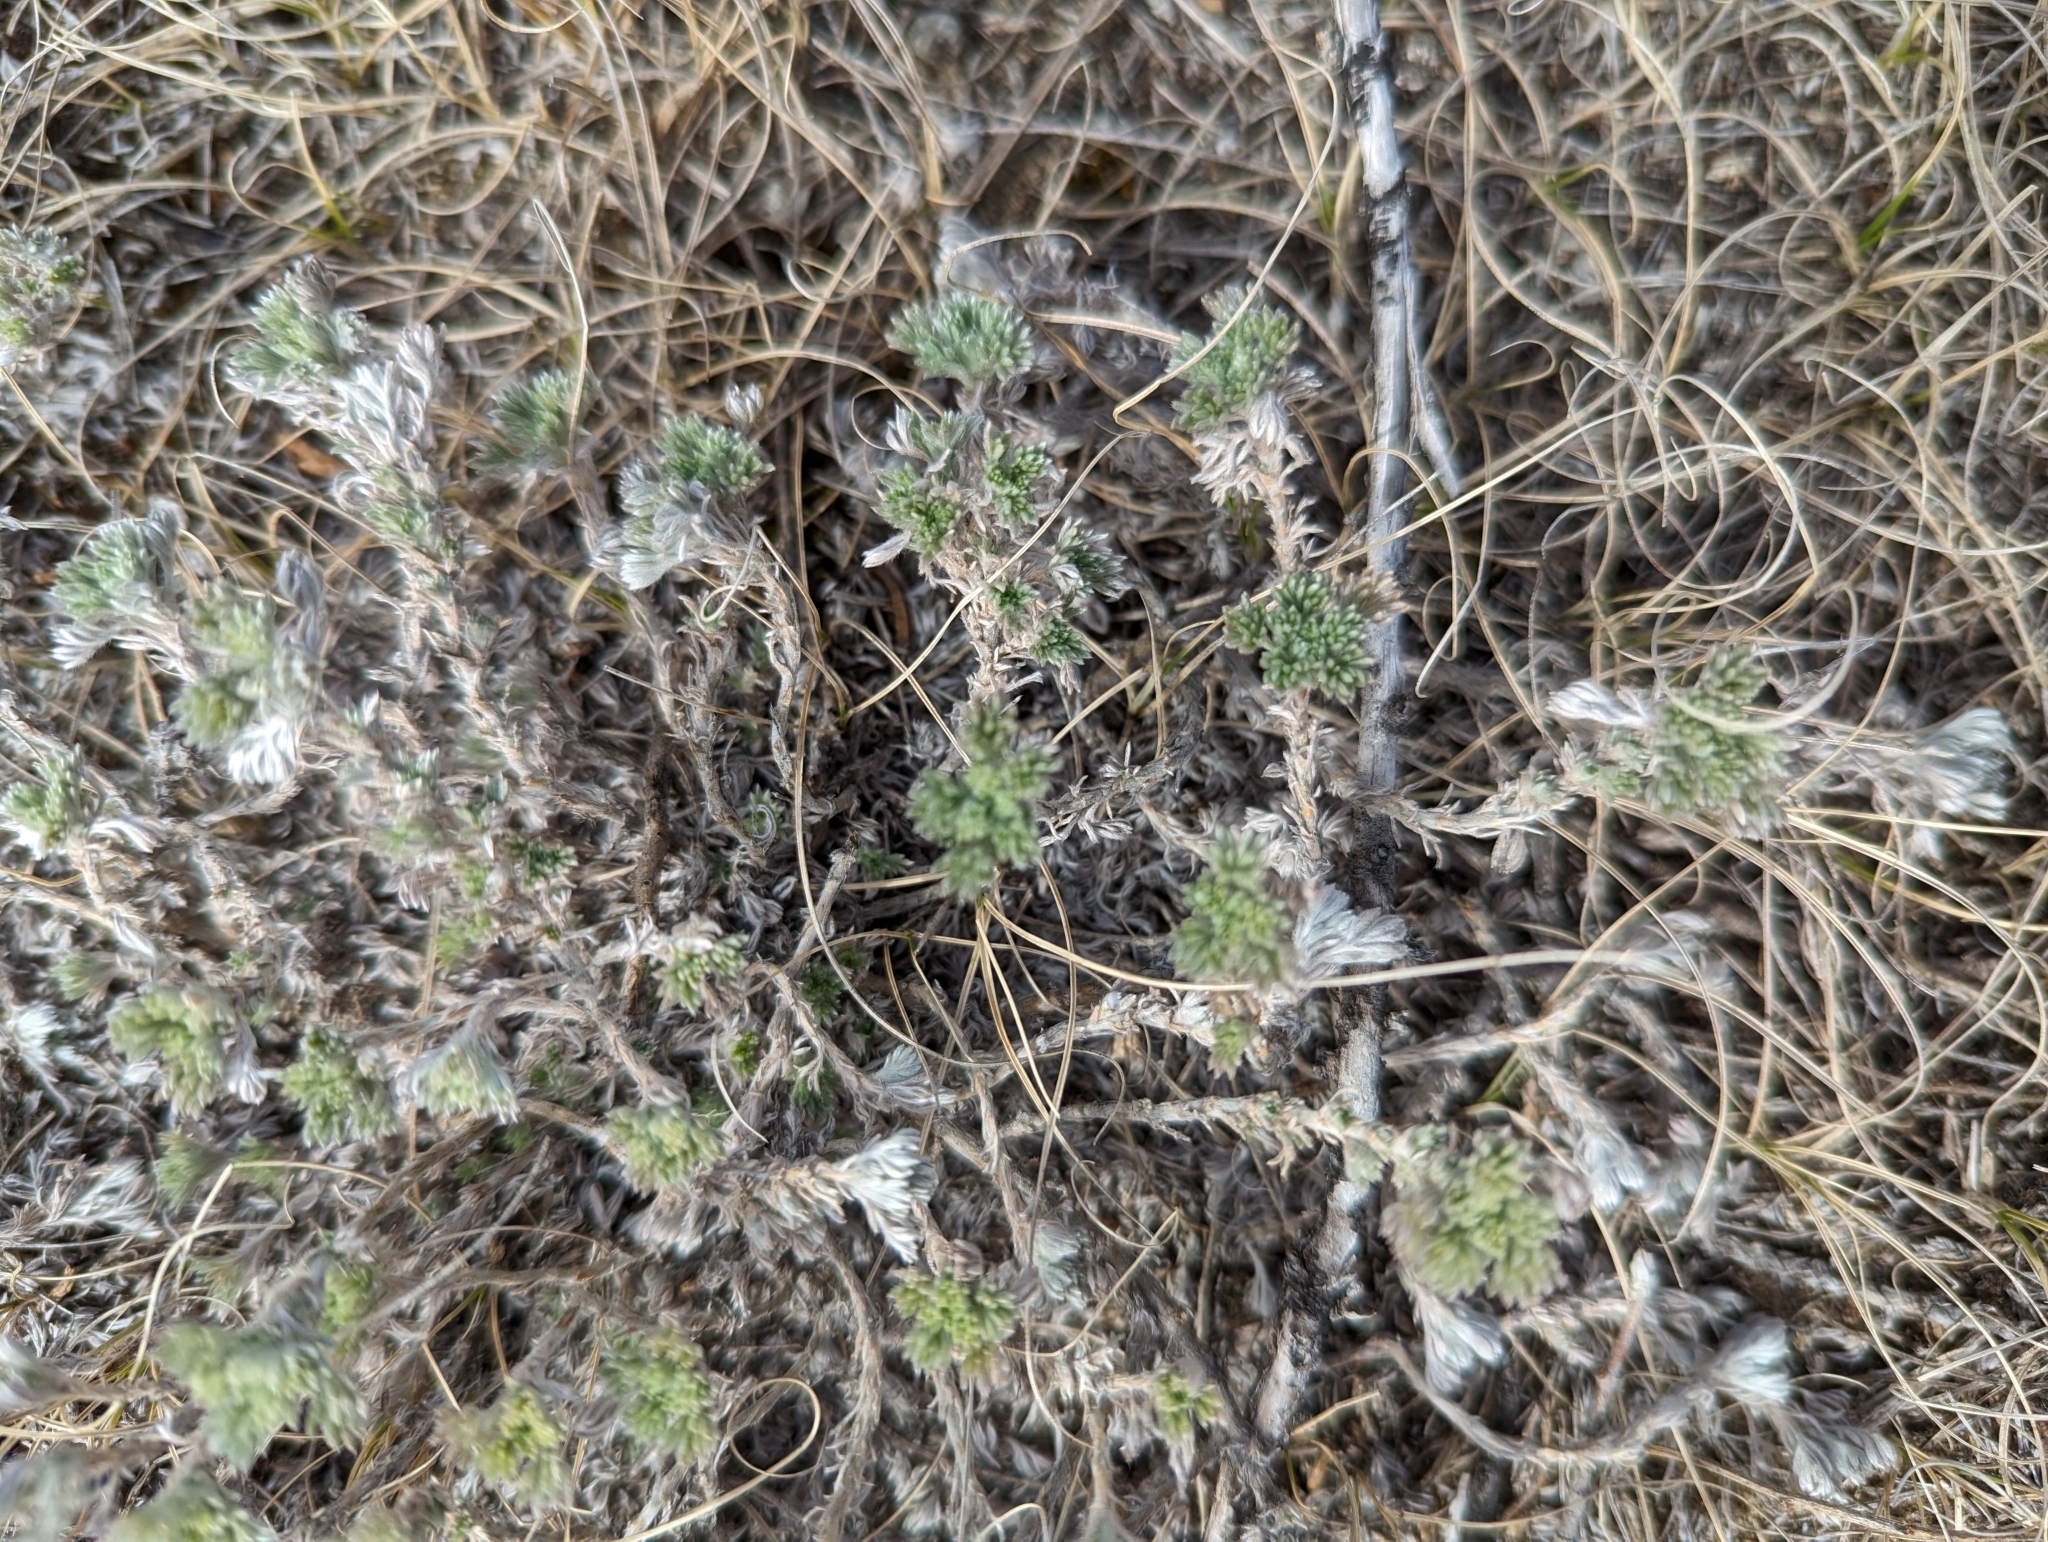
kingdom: Plantae
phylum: Tracheophyta
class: Magnoliopsida
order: Asterales
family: Asteraceae
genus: Artemisia
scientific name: Artemisia frigida
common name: Prairie sagewort
